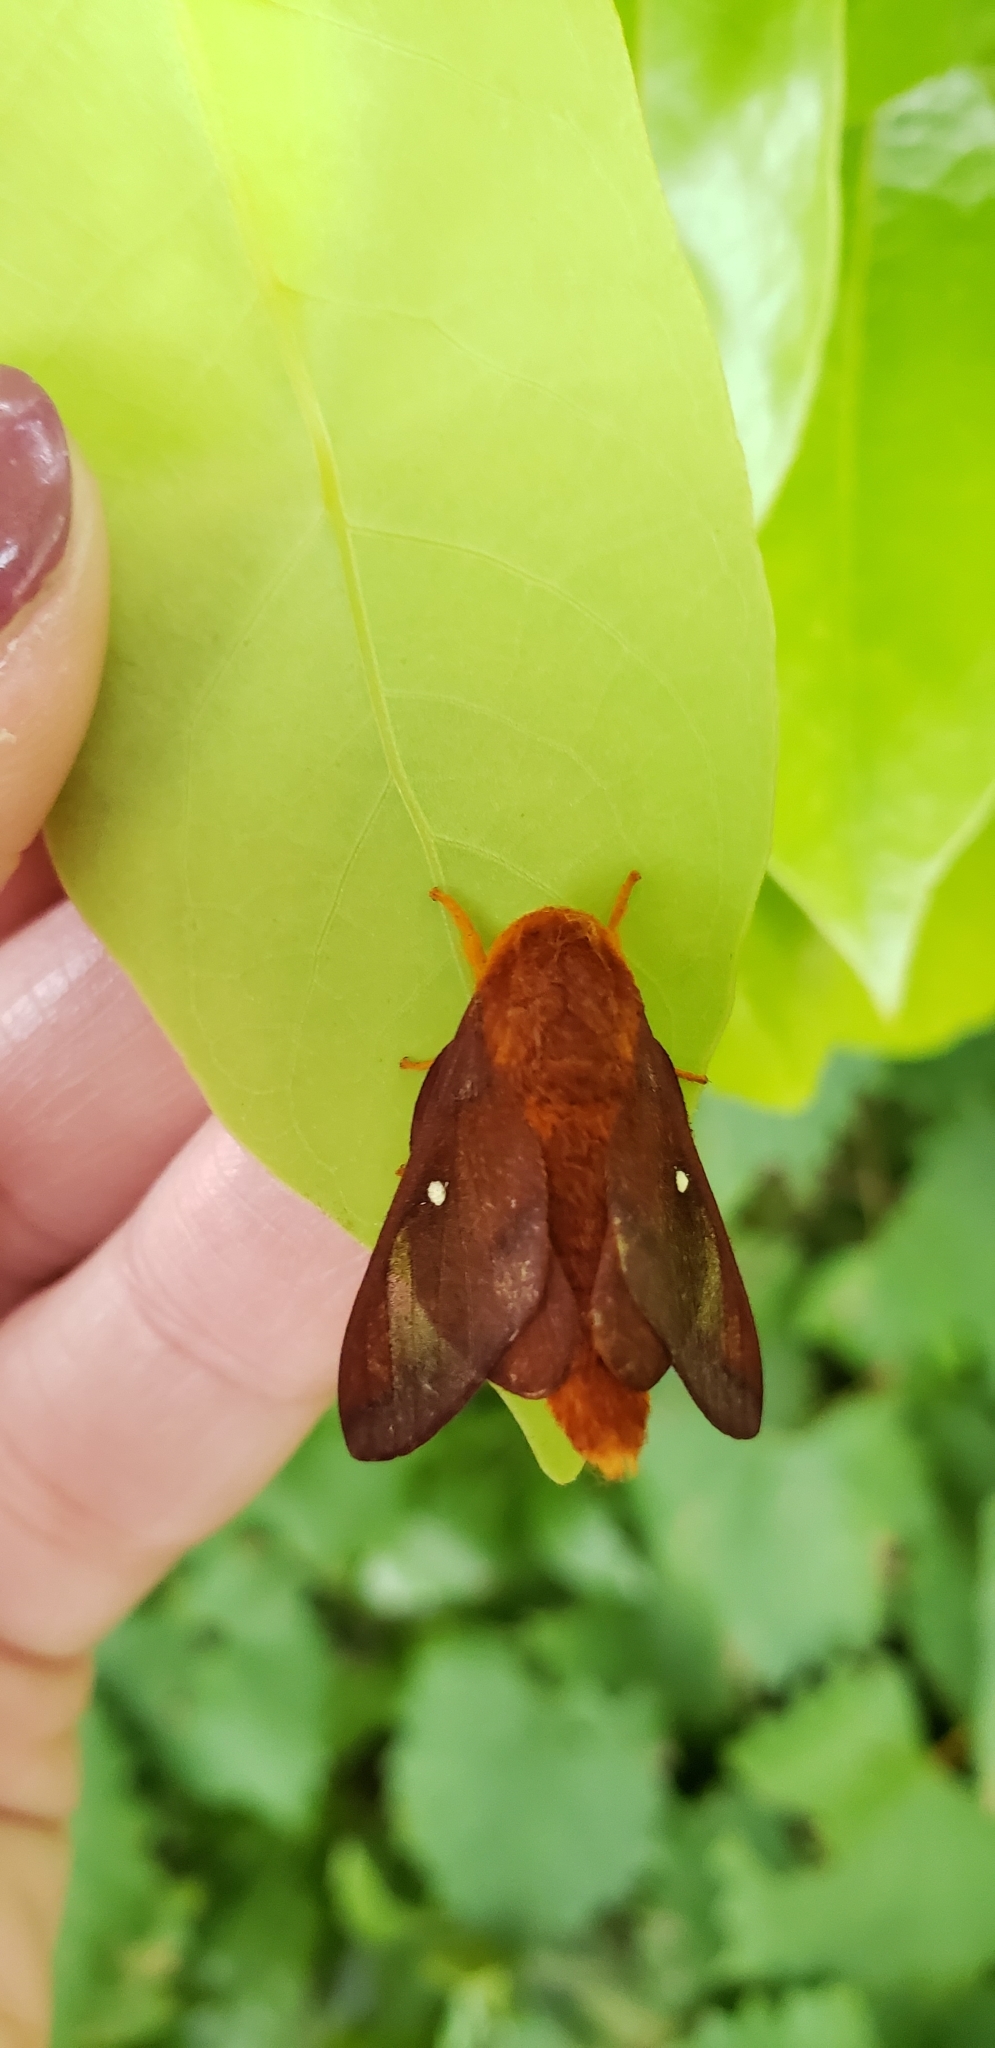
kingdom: Animalia
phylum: Arthropoda
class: Insecta
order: Lepidoptera
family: Saturniidae
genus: Anisota
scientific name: Anisota virginiensis
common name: Pink striped oakworm moth
